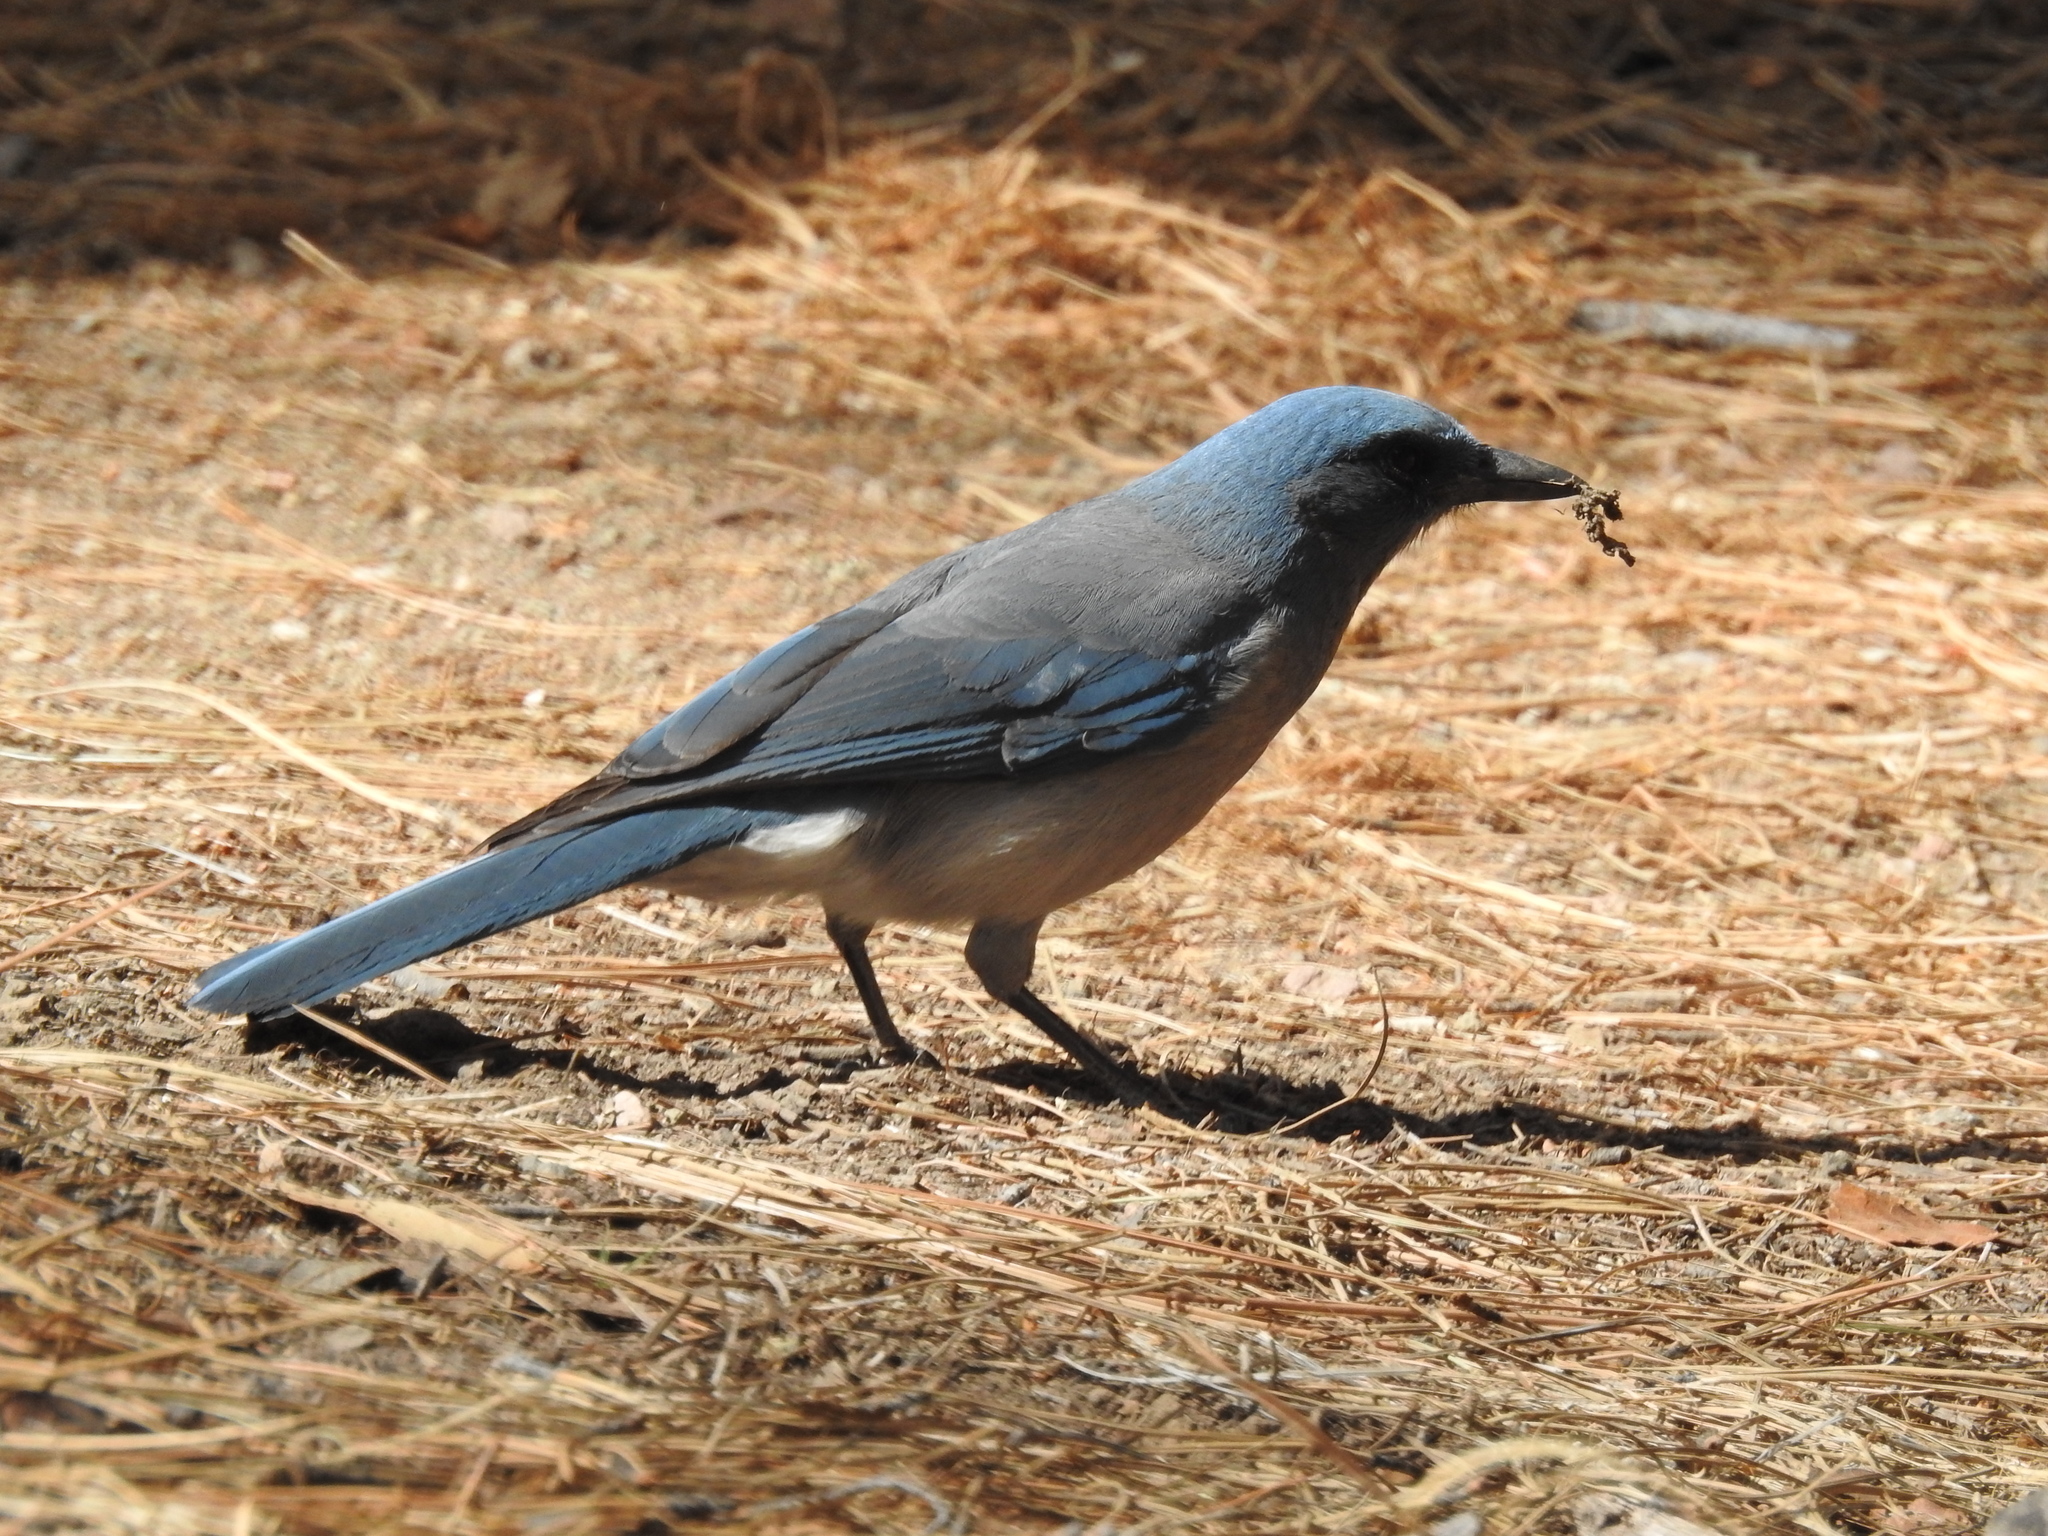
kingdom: Animalia
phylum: Chordata
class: Aves
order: Passeriformes
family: Corvidae
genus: Aphelocoma
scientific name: Aphelocoma wollweberi
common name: Mexican jay
